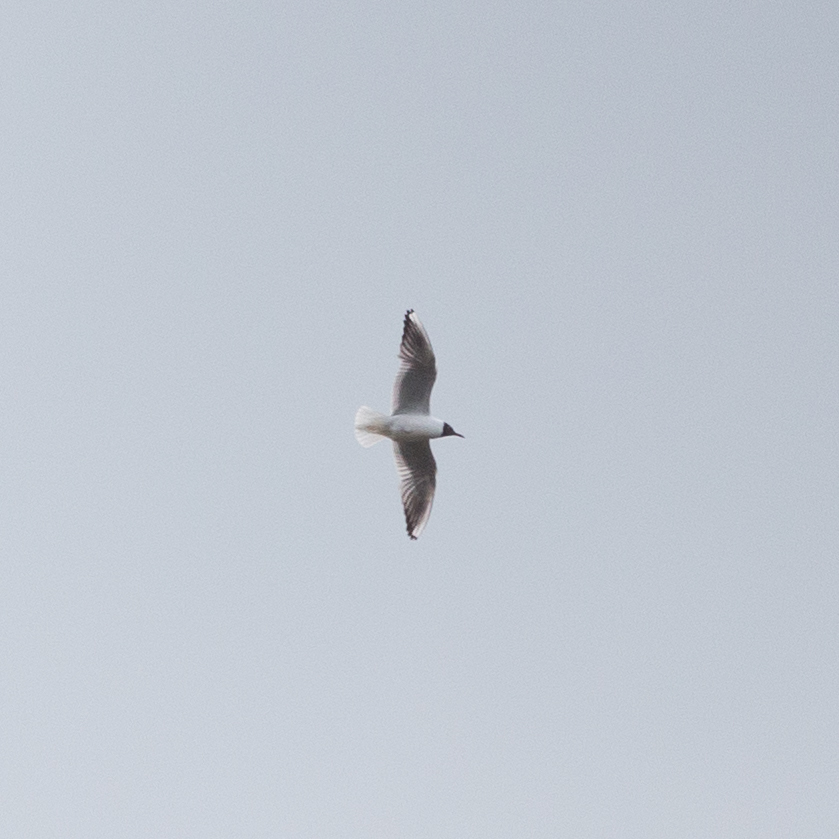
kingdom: Animalia
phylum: Chordata
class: Aves
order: Charadriiformes
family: Laridae
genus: Chroicocephalus
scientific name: Chroicocephalus ridibundus
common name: Black-headed gull
